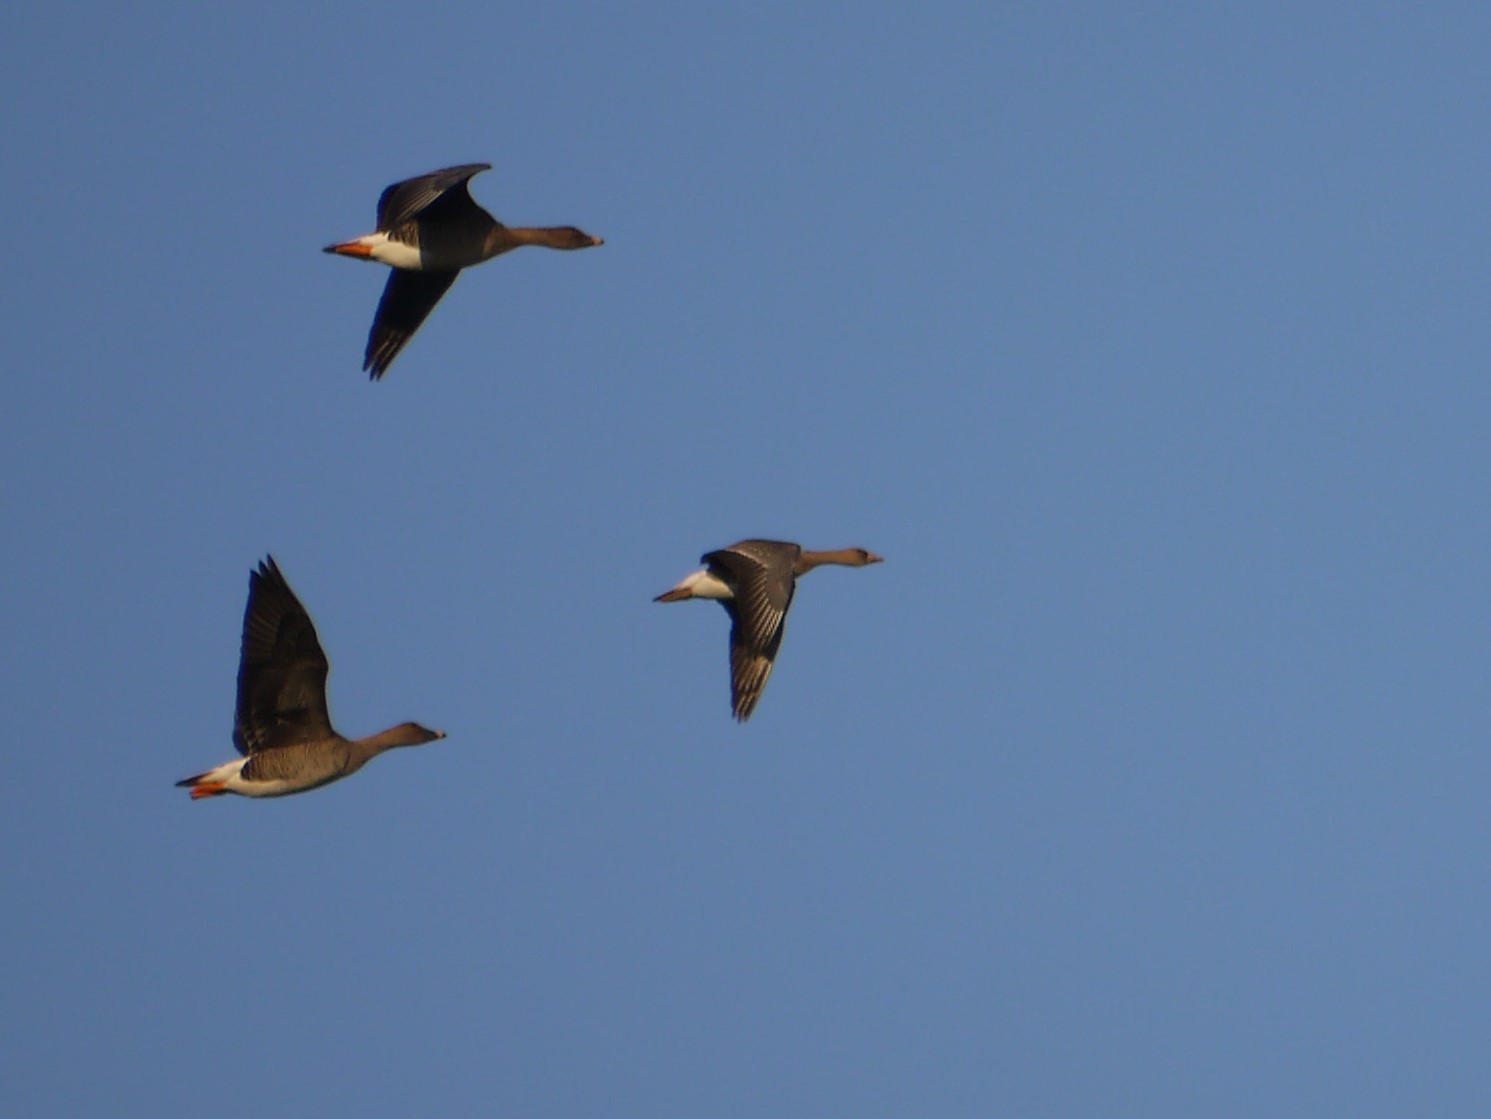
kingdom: Animalia
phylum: Chordata
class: Aves
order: Anseriformes
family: Anatidae
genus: Anser
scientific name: Anser albifrons
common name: Greater white-fronted goose
